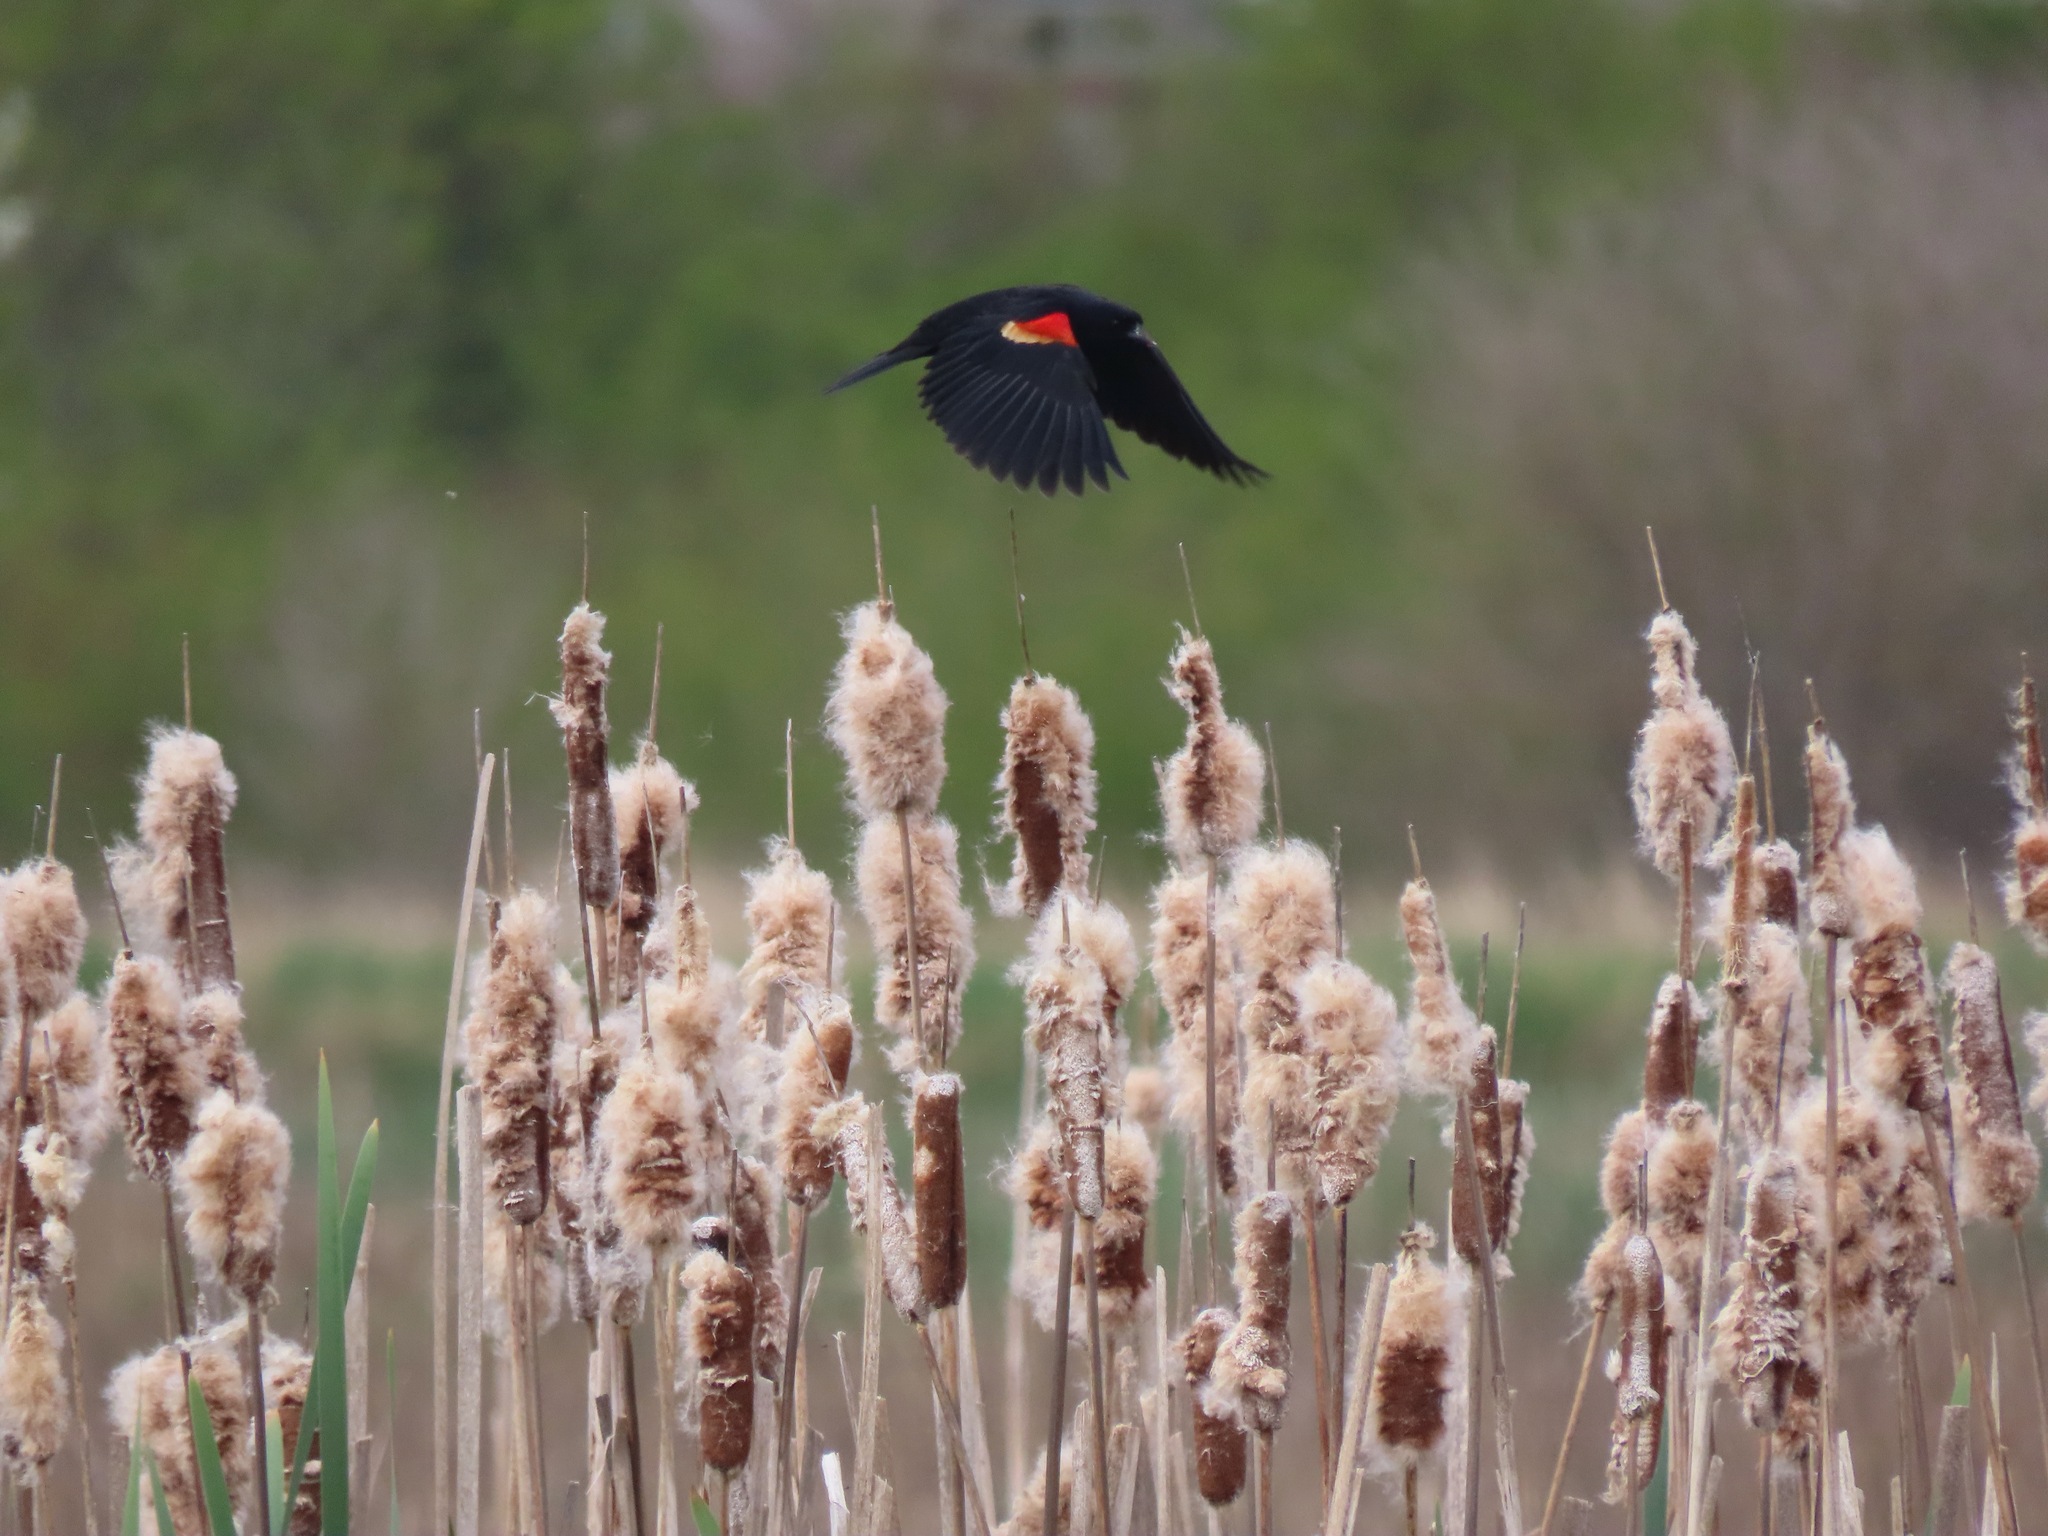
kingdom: Animalia
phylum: Chordata
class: Aves
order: Passeriformes
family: Icteridae
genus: Agelaius
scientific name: Agelaius phoeniceus
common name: Red-winged blackbird
